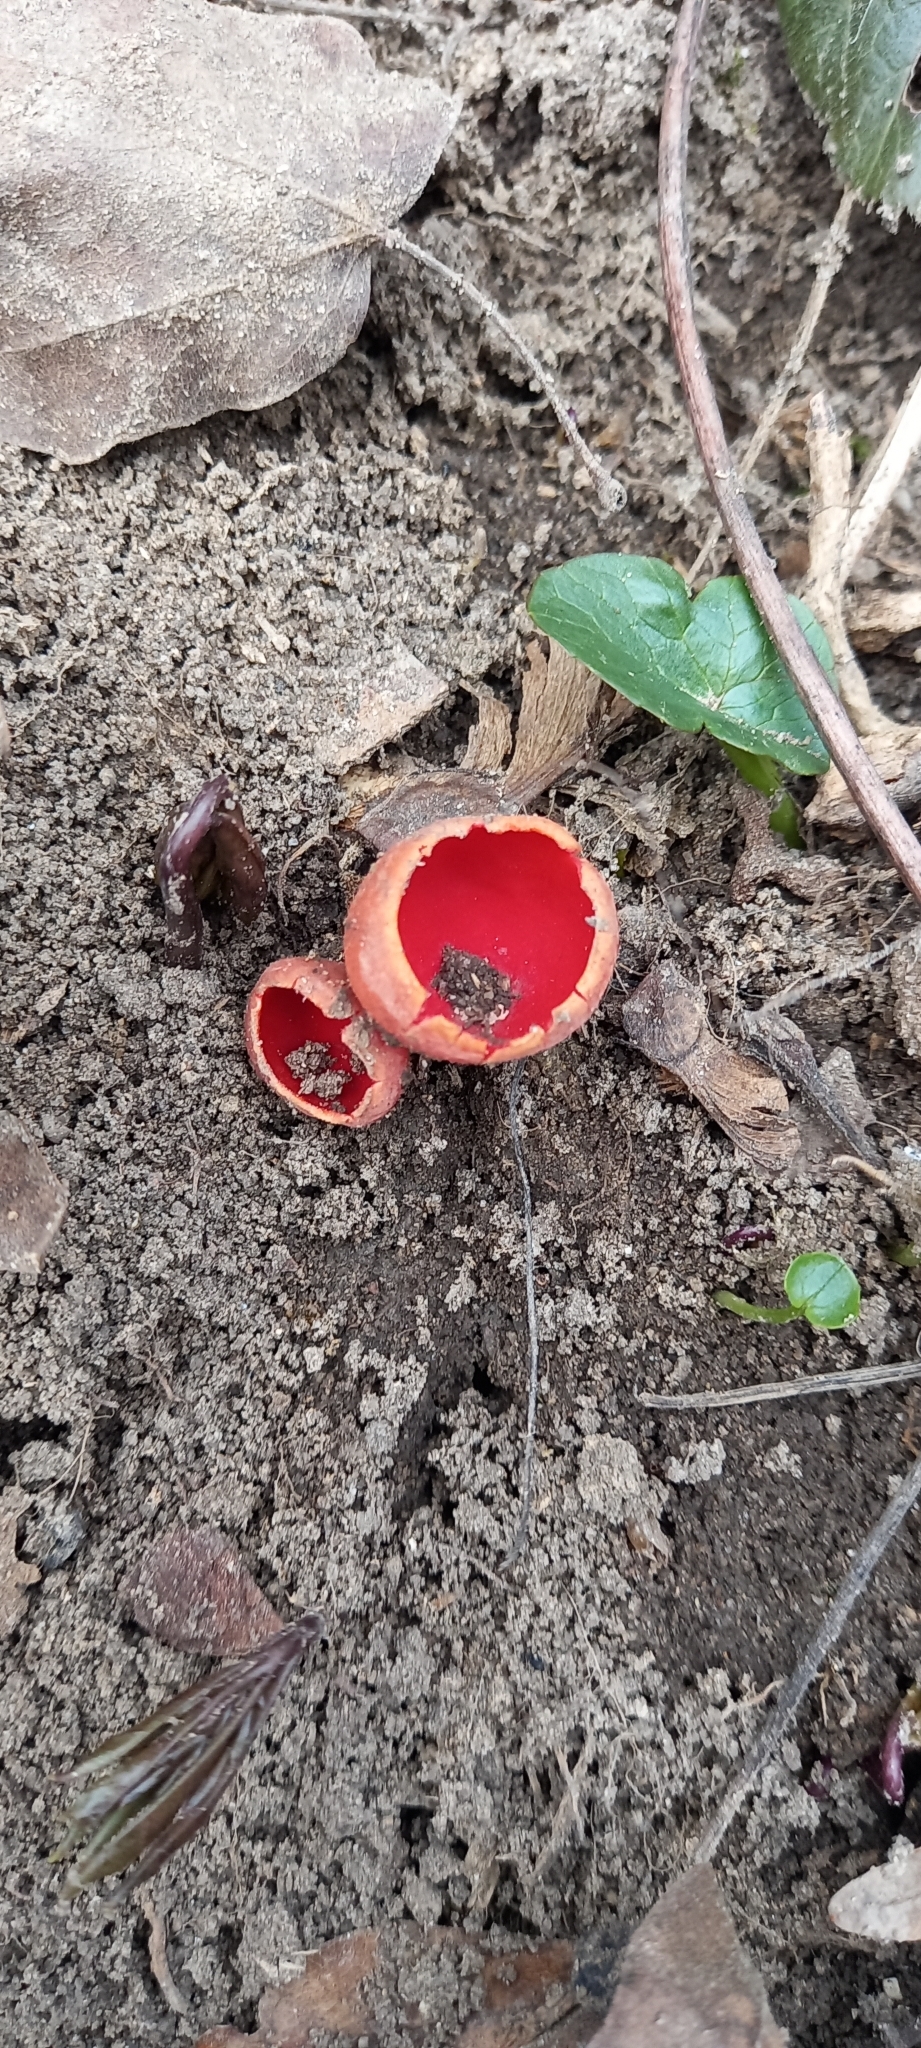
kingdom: Fungi
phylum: Ascomycota
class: Pezizomycetes
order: Pezizales
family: Sarcoscyphaceae
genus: Sarcoscypha
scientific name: Sarcoscypha
